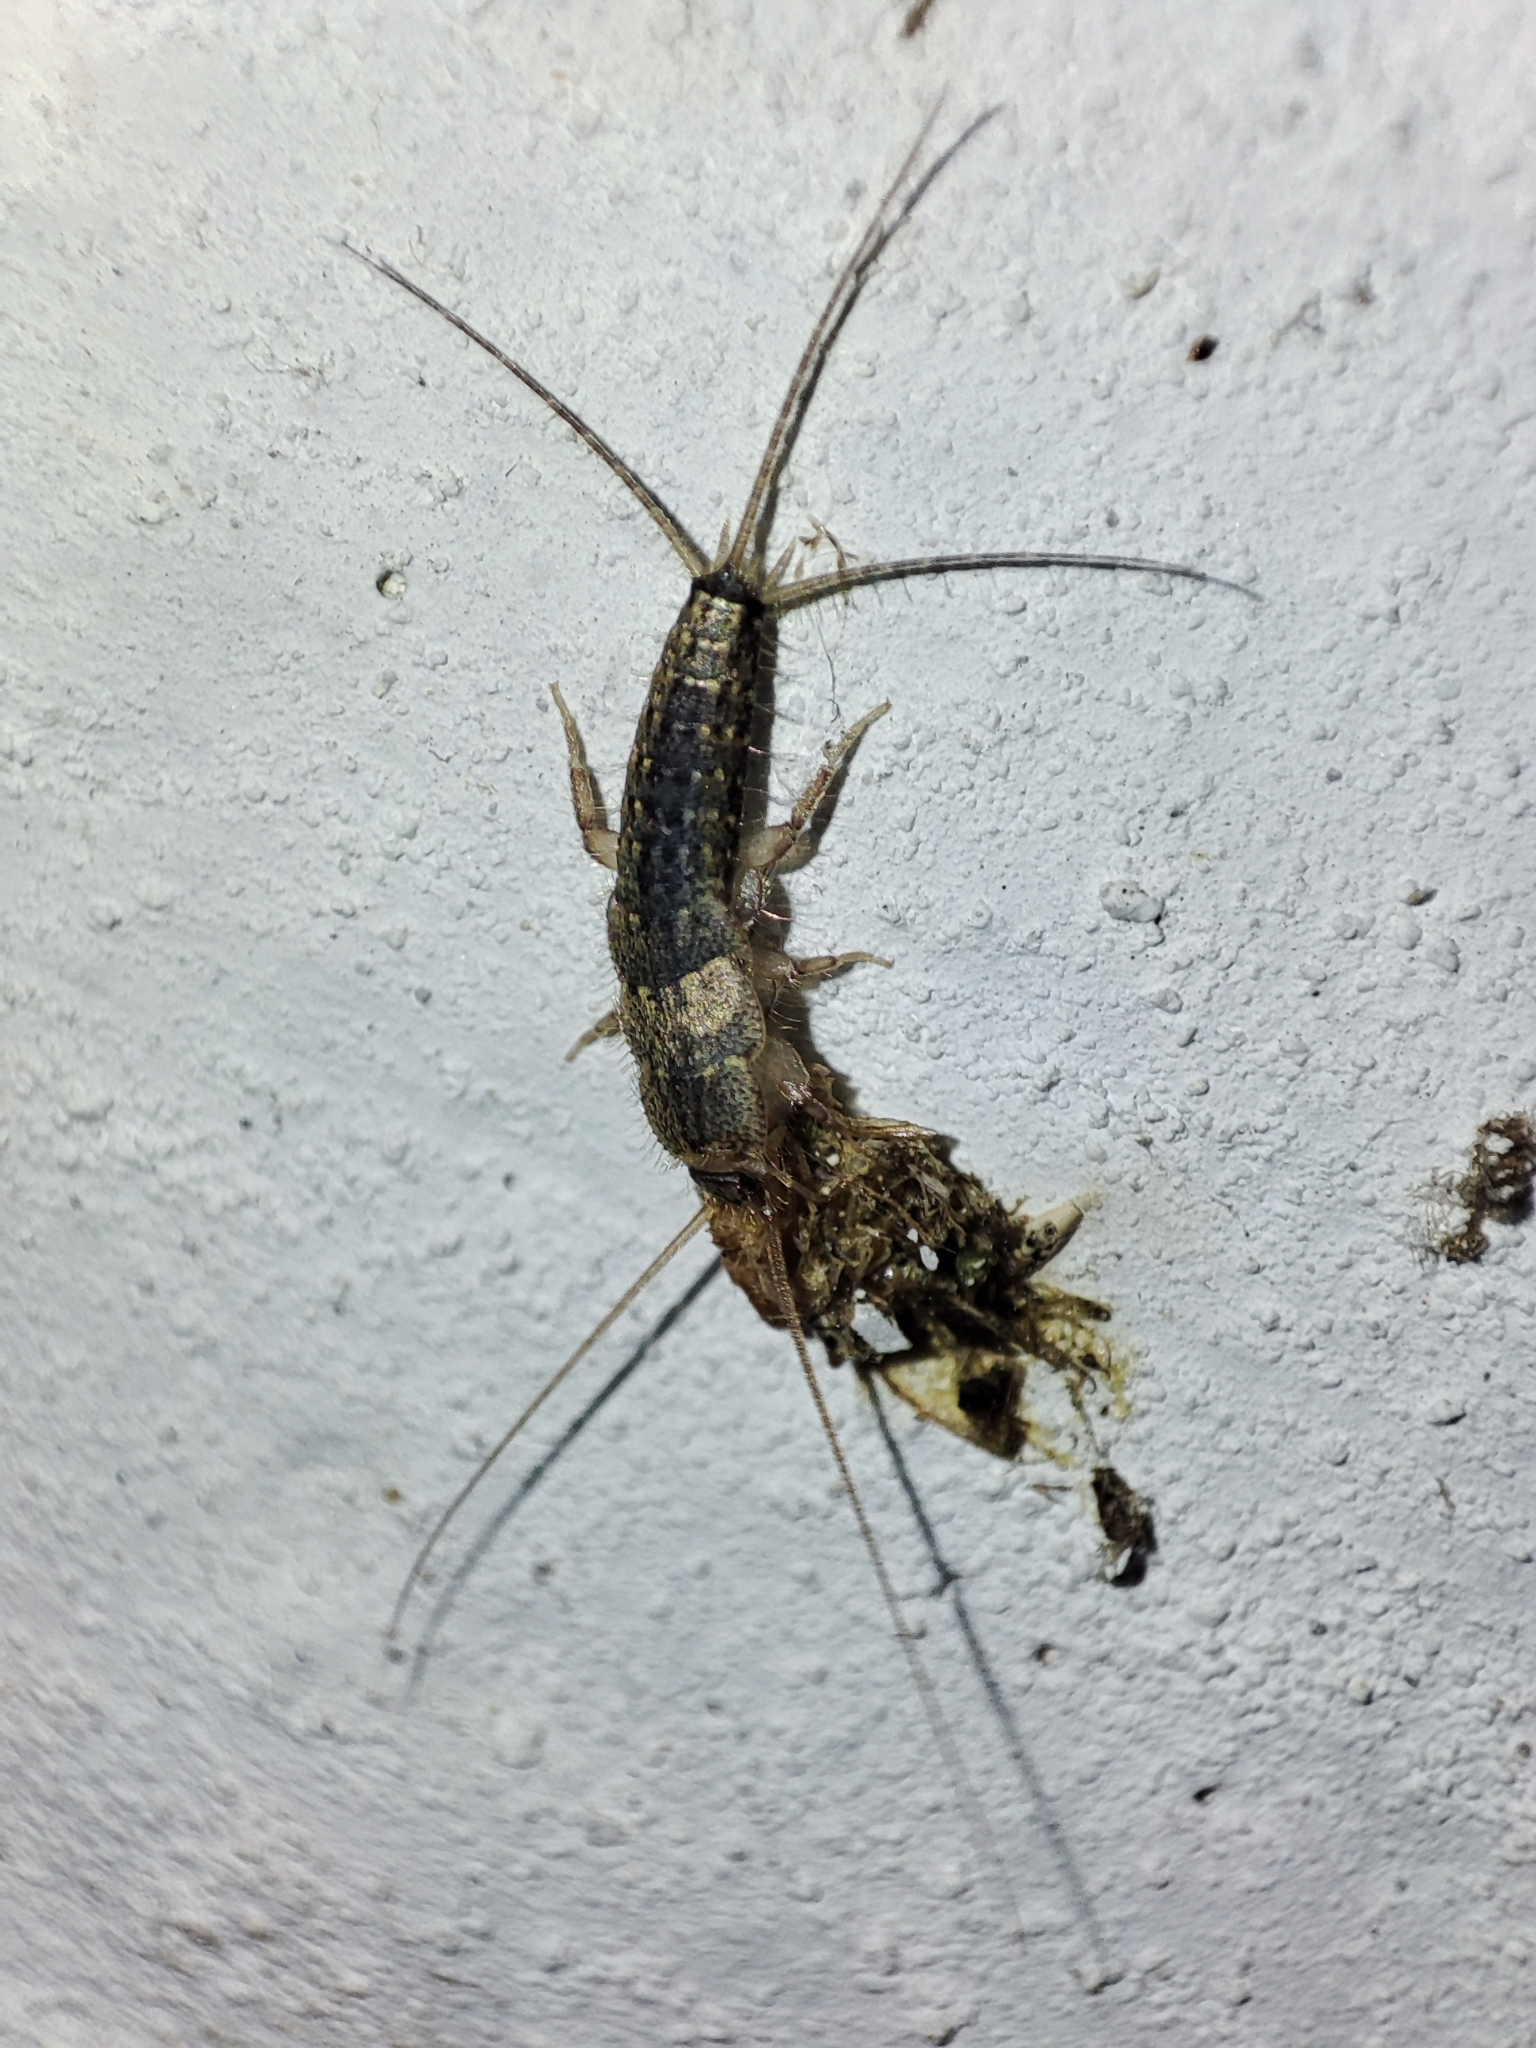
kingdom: Animalia
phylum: Arthropoda
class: Insecta
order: Zygentoma
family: Lepismatidae
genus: Ctenolepisma
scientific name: Ctenolepisma lineata
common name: Four-lined silverfish
